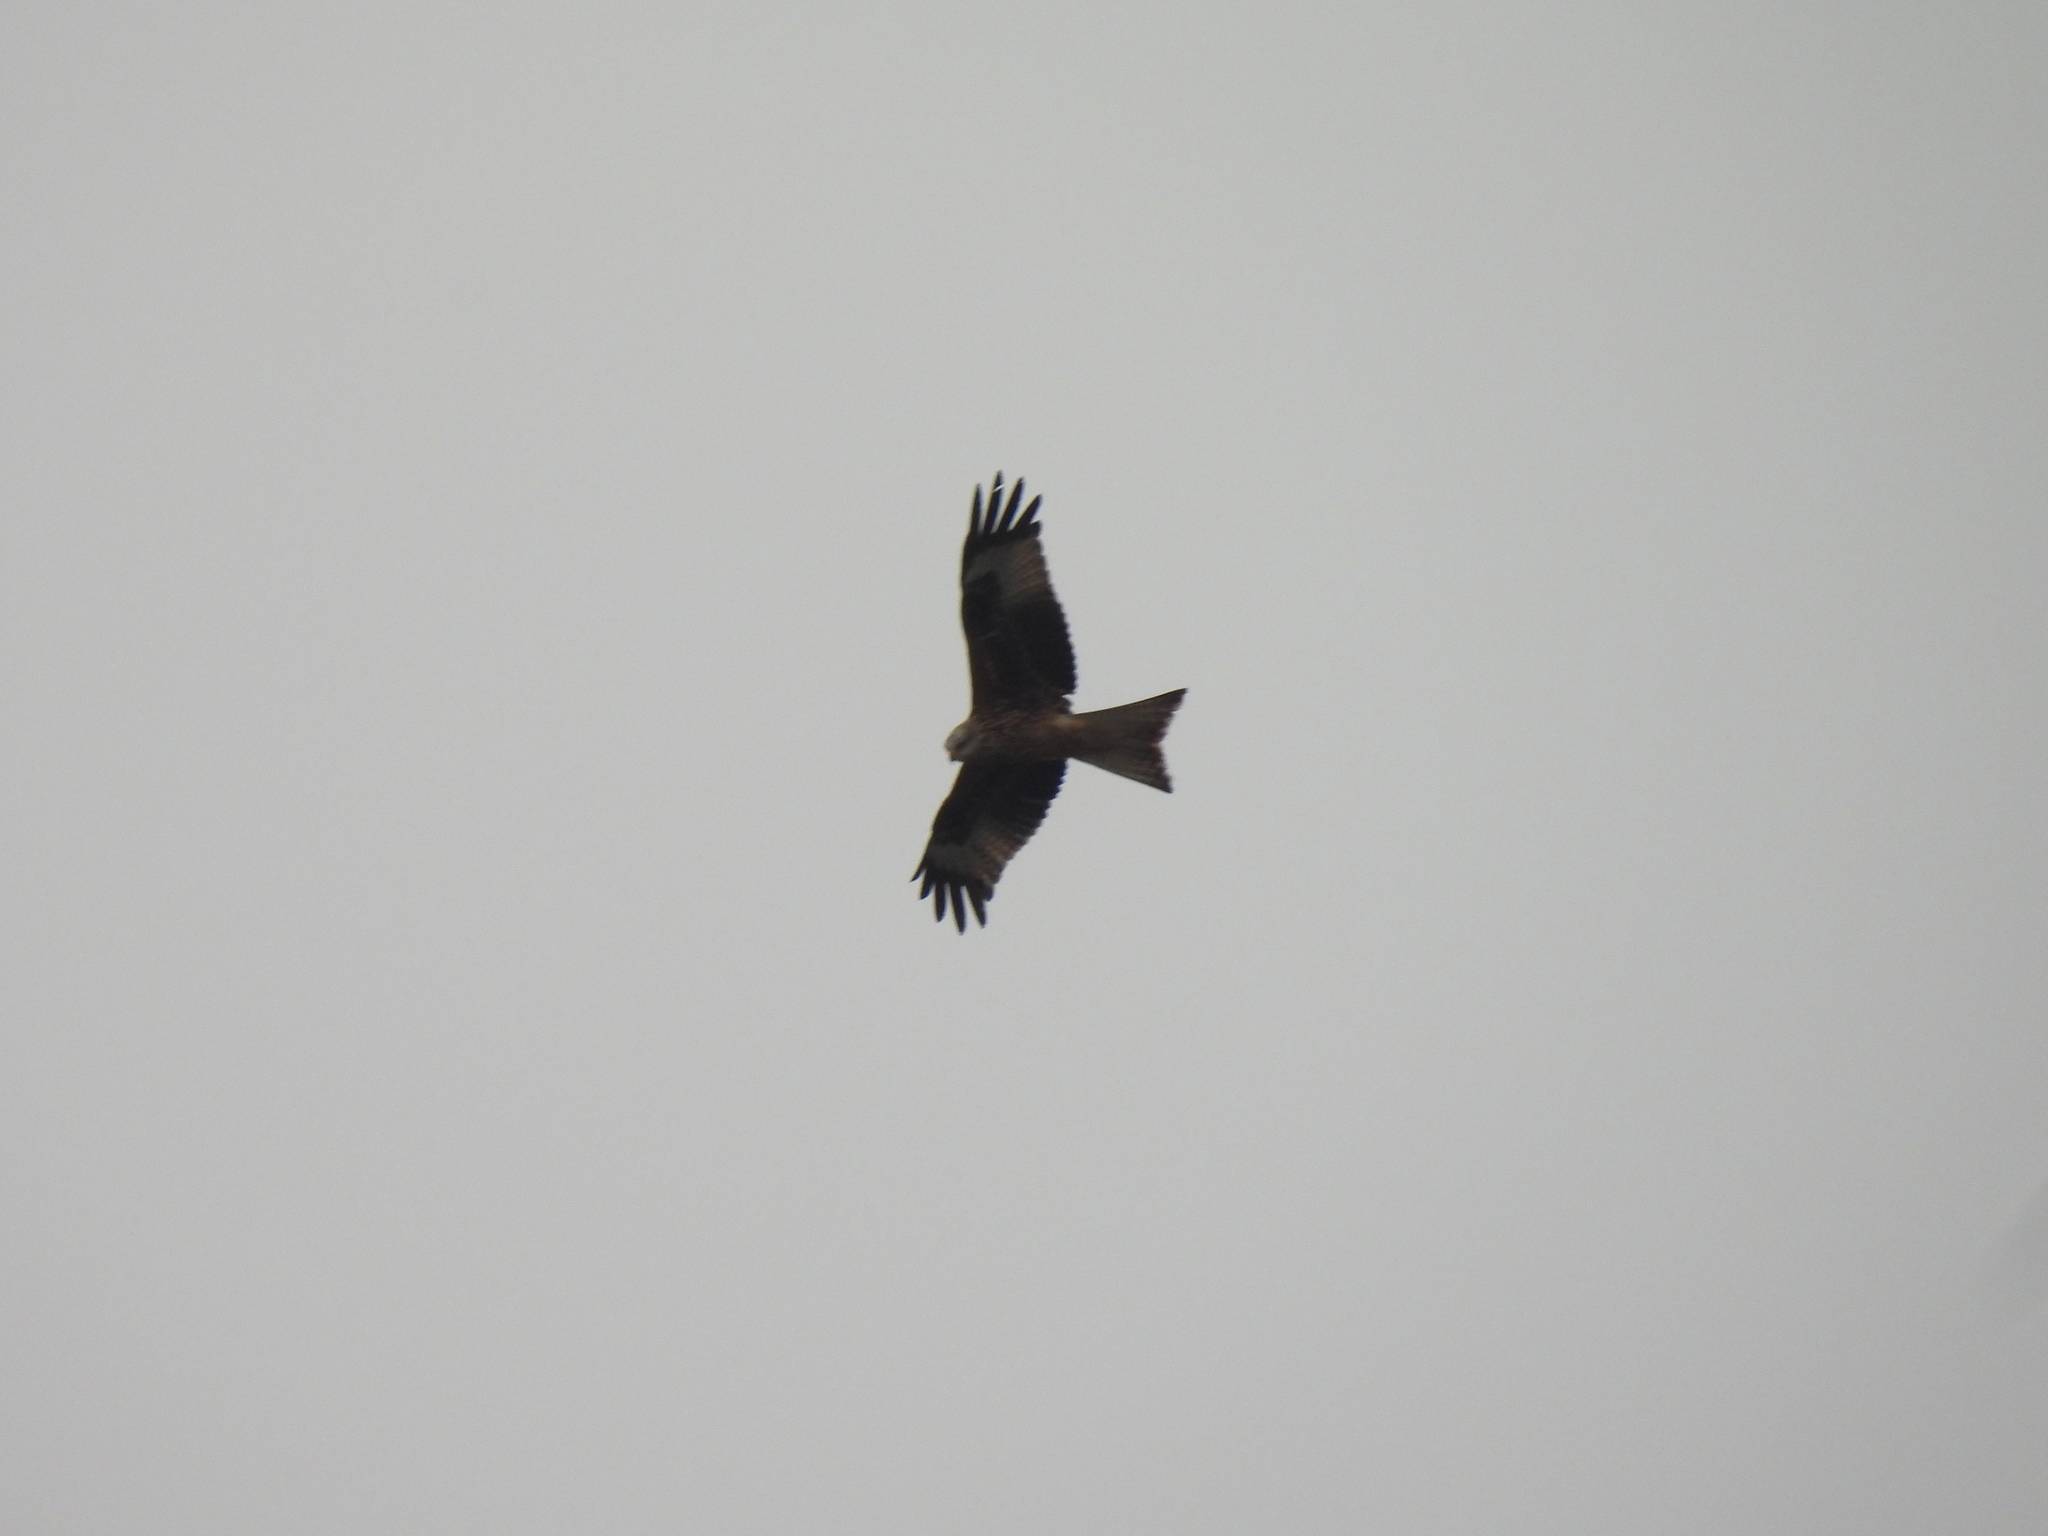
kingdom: Animalia
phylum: Chordata
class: Aves
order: Accipitriformes
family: Accipitridae
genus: Milvus
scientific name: Milvus milvus
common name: Red kite
